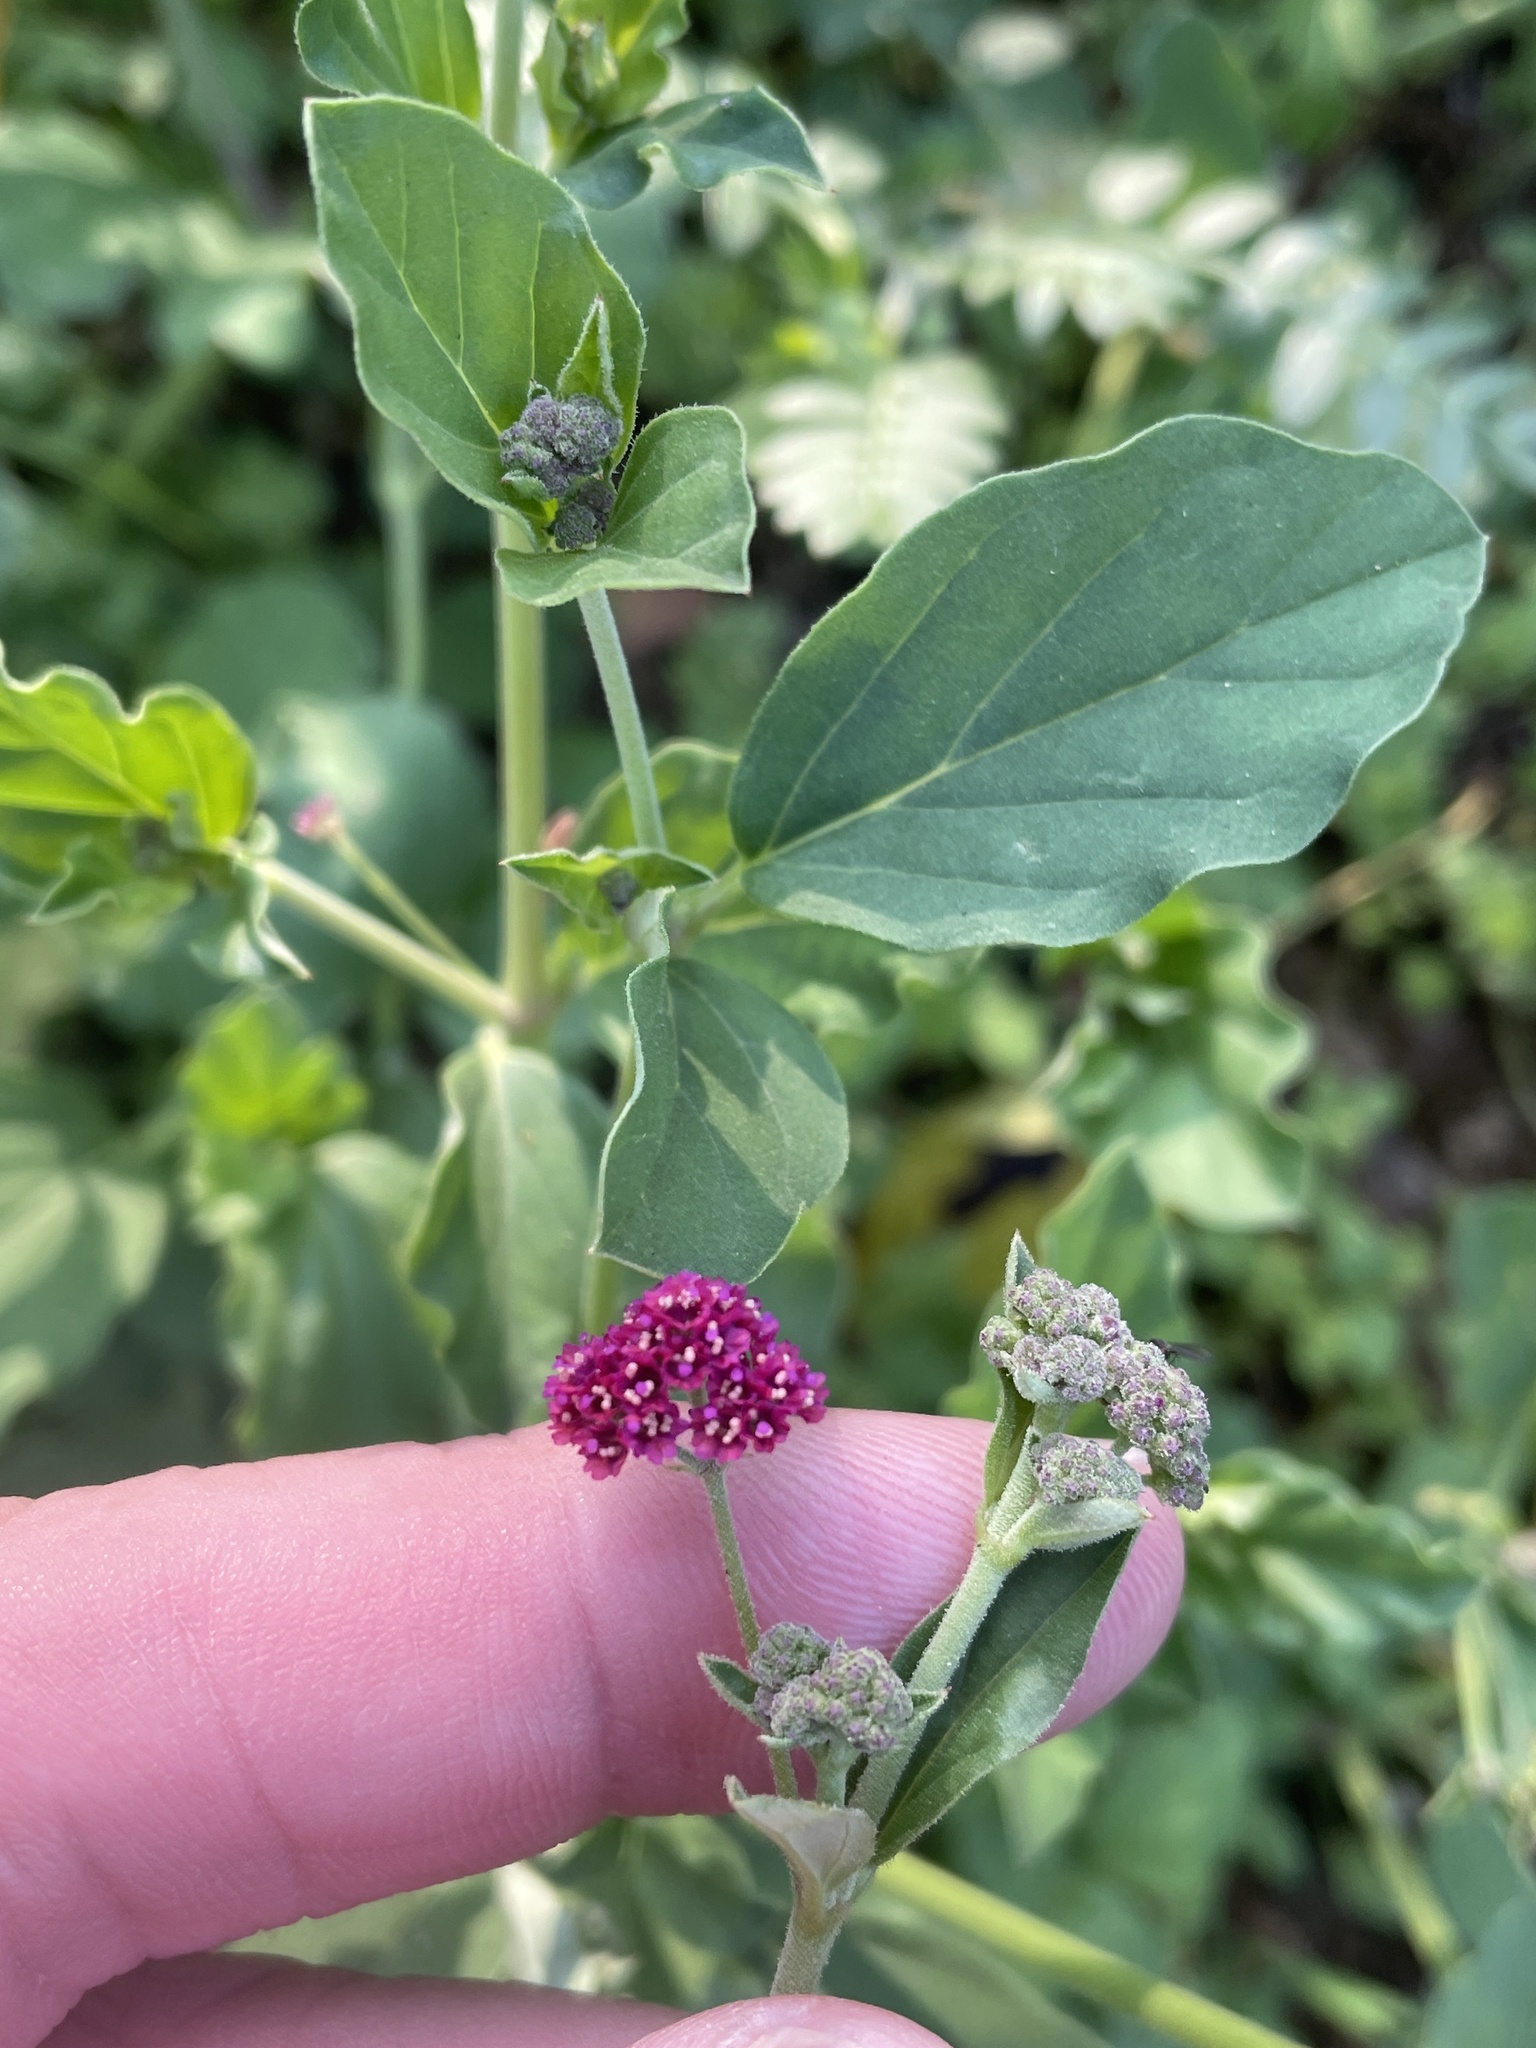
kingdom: Plantae
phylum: Tracheophyta
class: Magnoliopsida
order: Caryophyllales
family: Nyctaginaceae
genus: Boerhavia
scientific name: Boerhavia coccinea
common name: Scarlet spiderling
